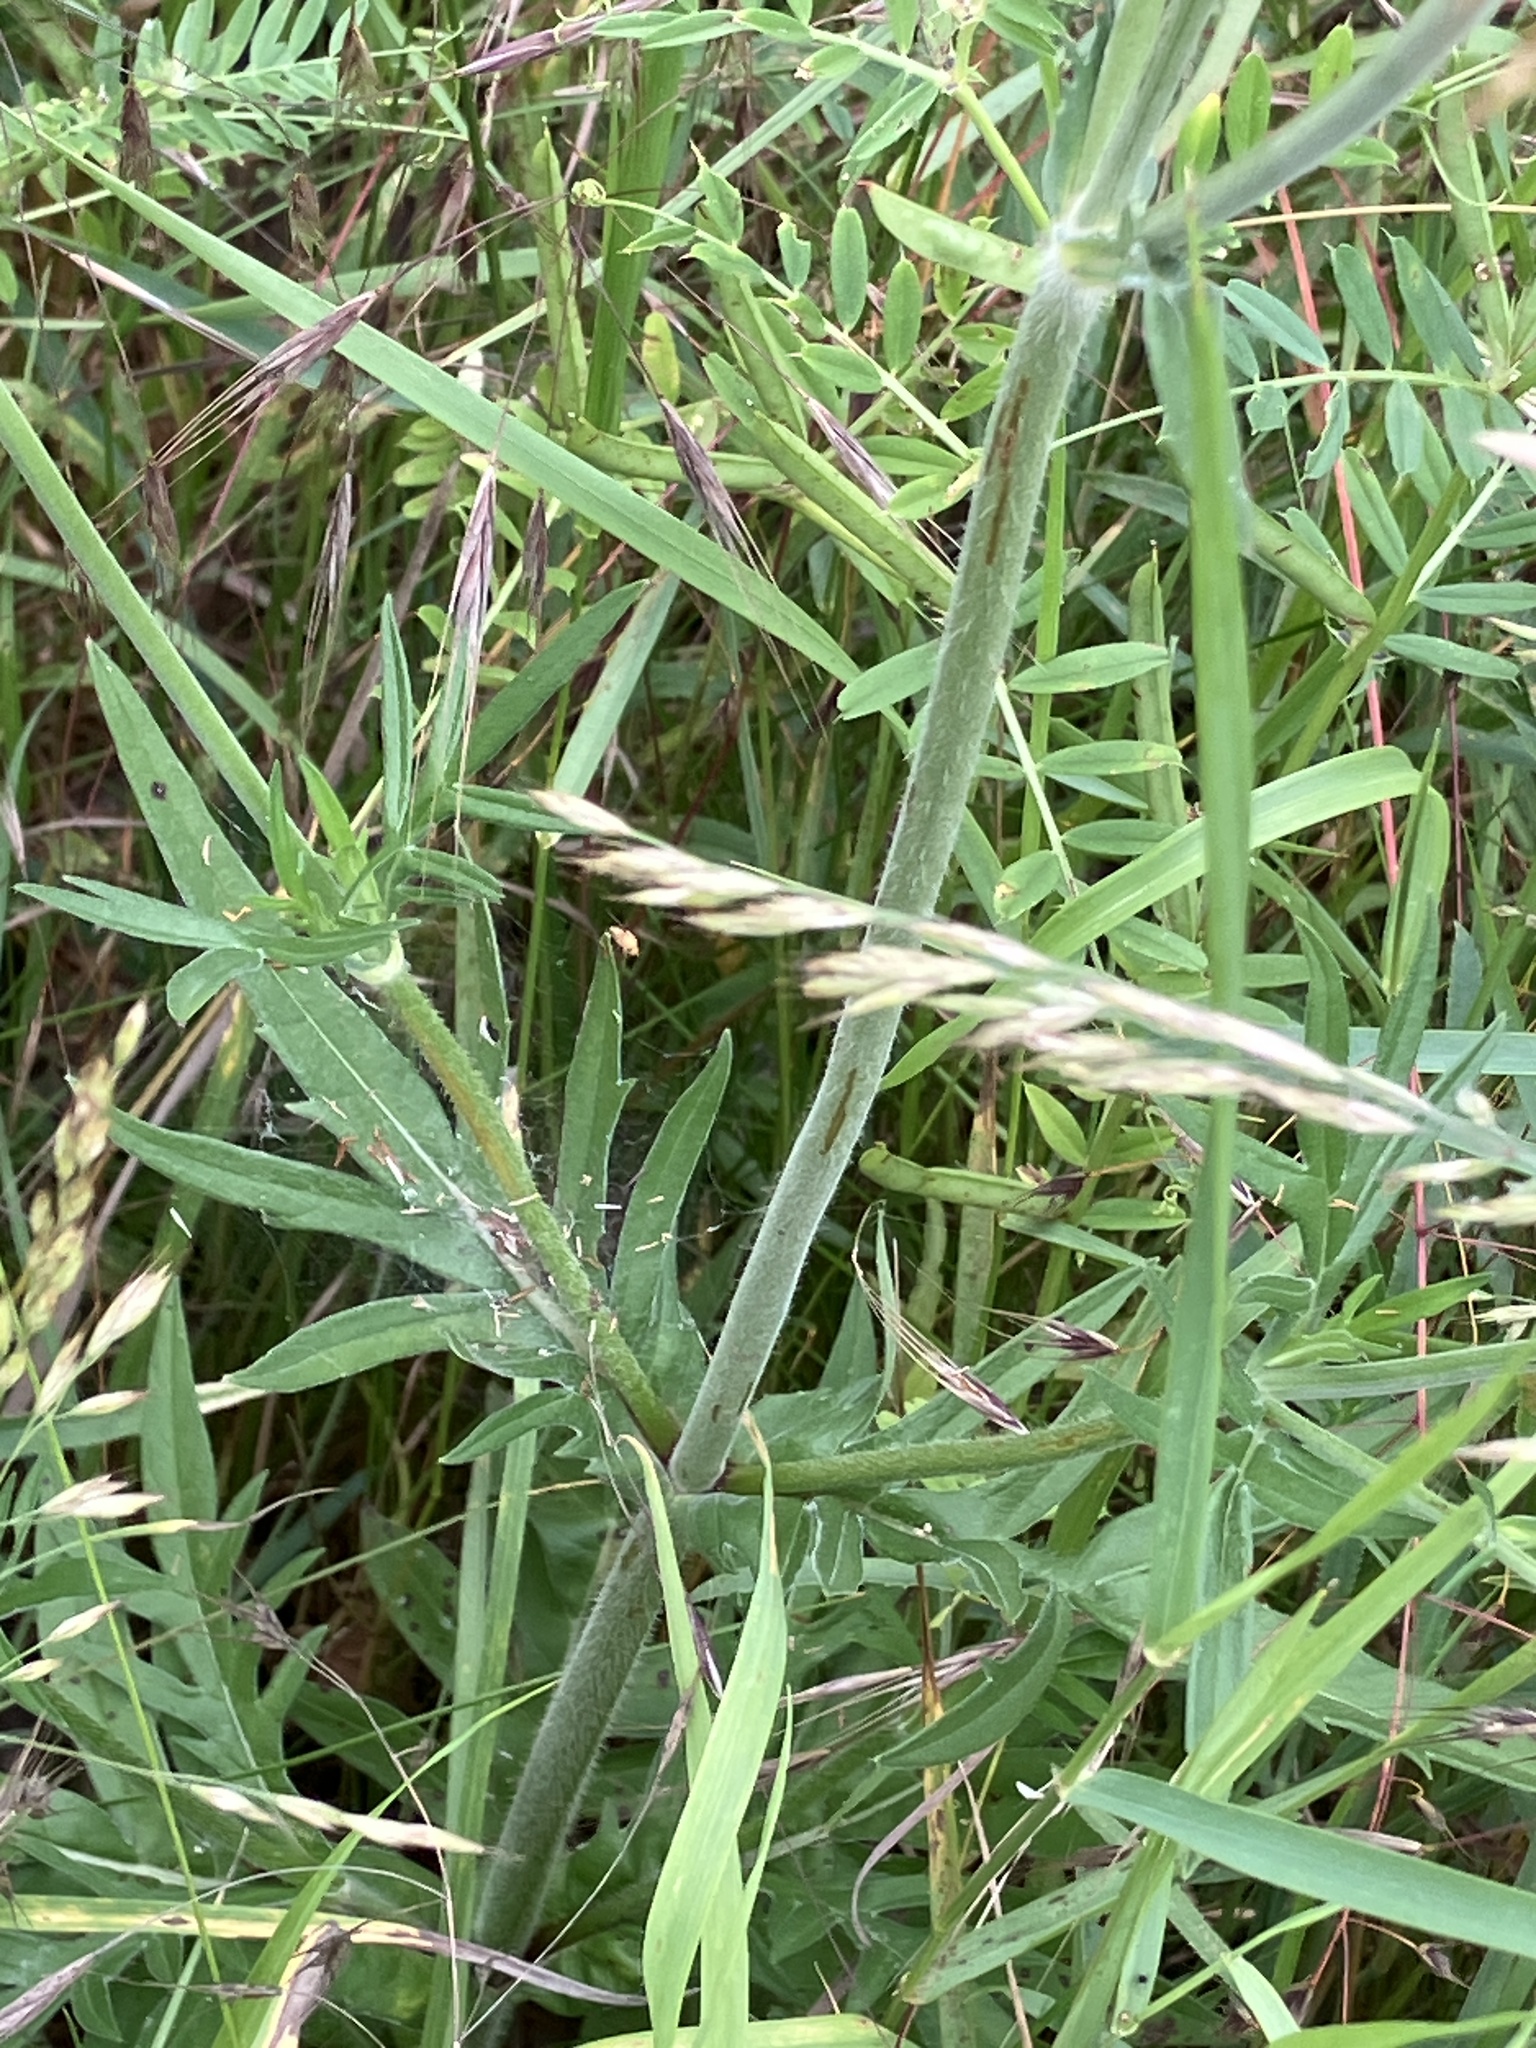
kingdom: Plantae
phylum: Tracheophyta
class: Magnoliopsida
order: Dipsacales
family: Caprifoliaceae
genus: Knautia
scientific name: Knautia arvensis
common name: Field scabiosa
